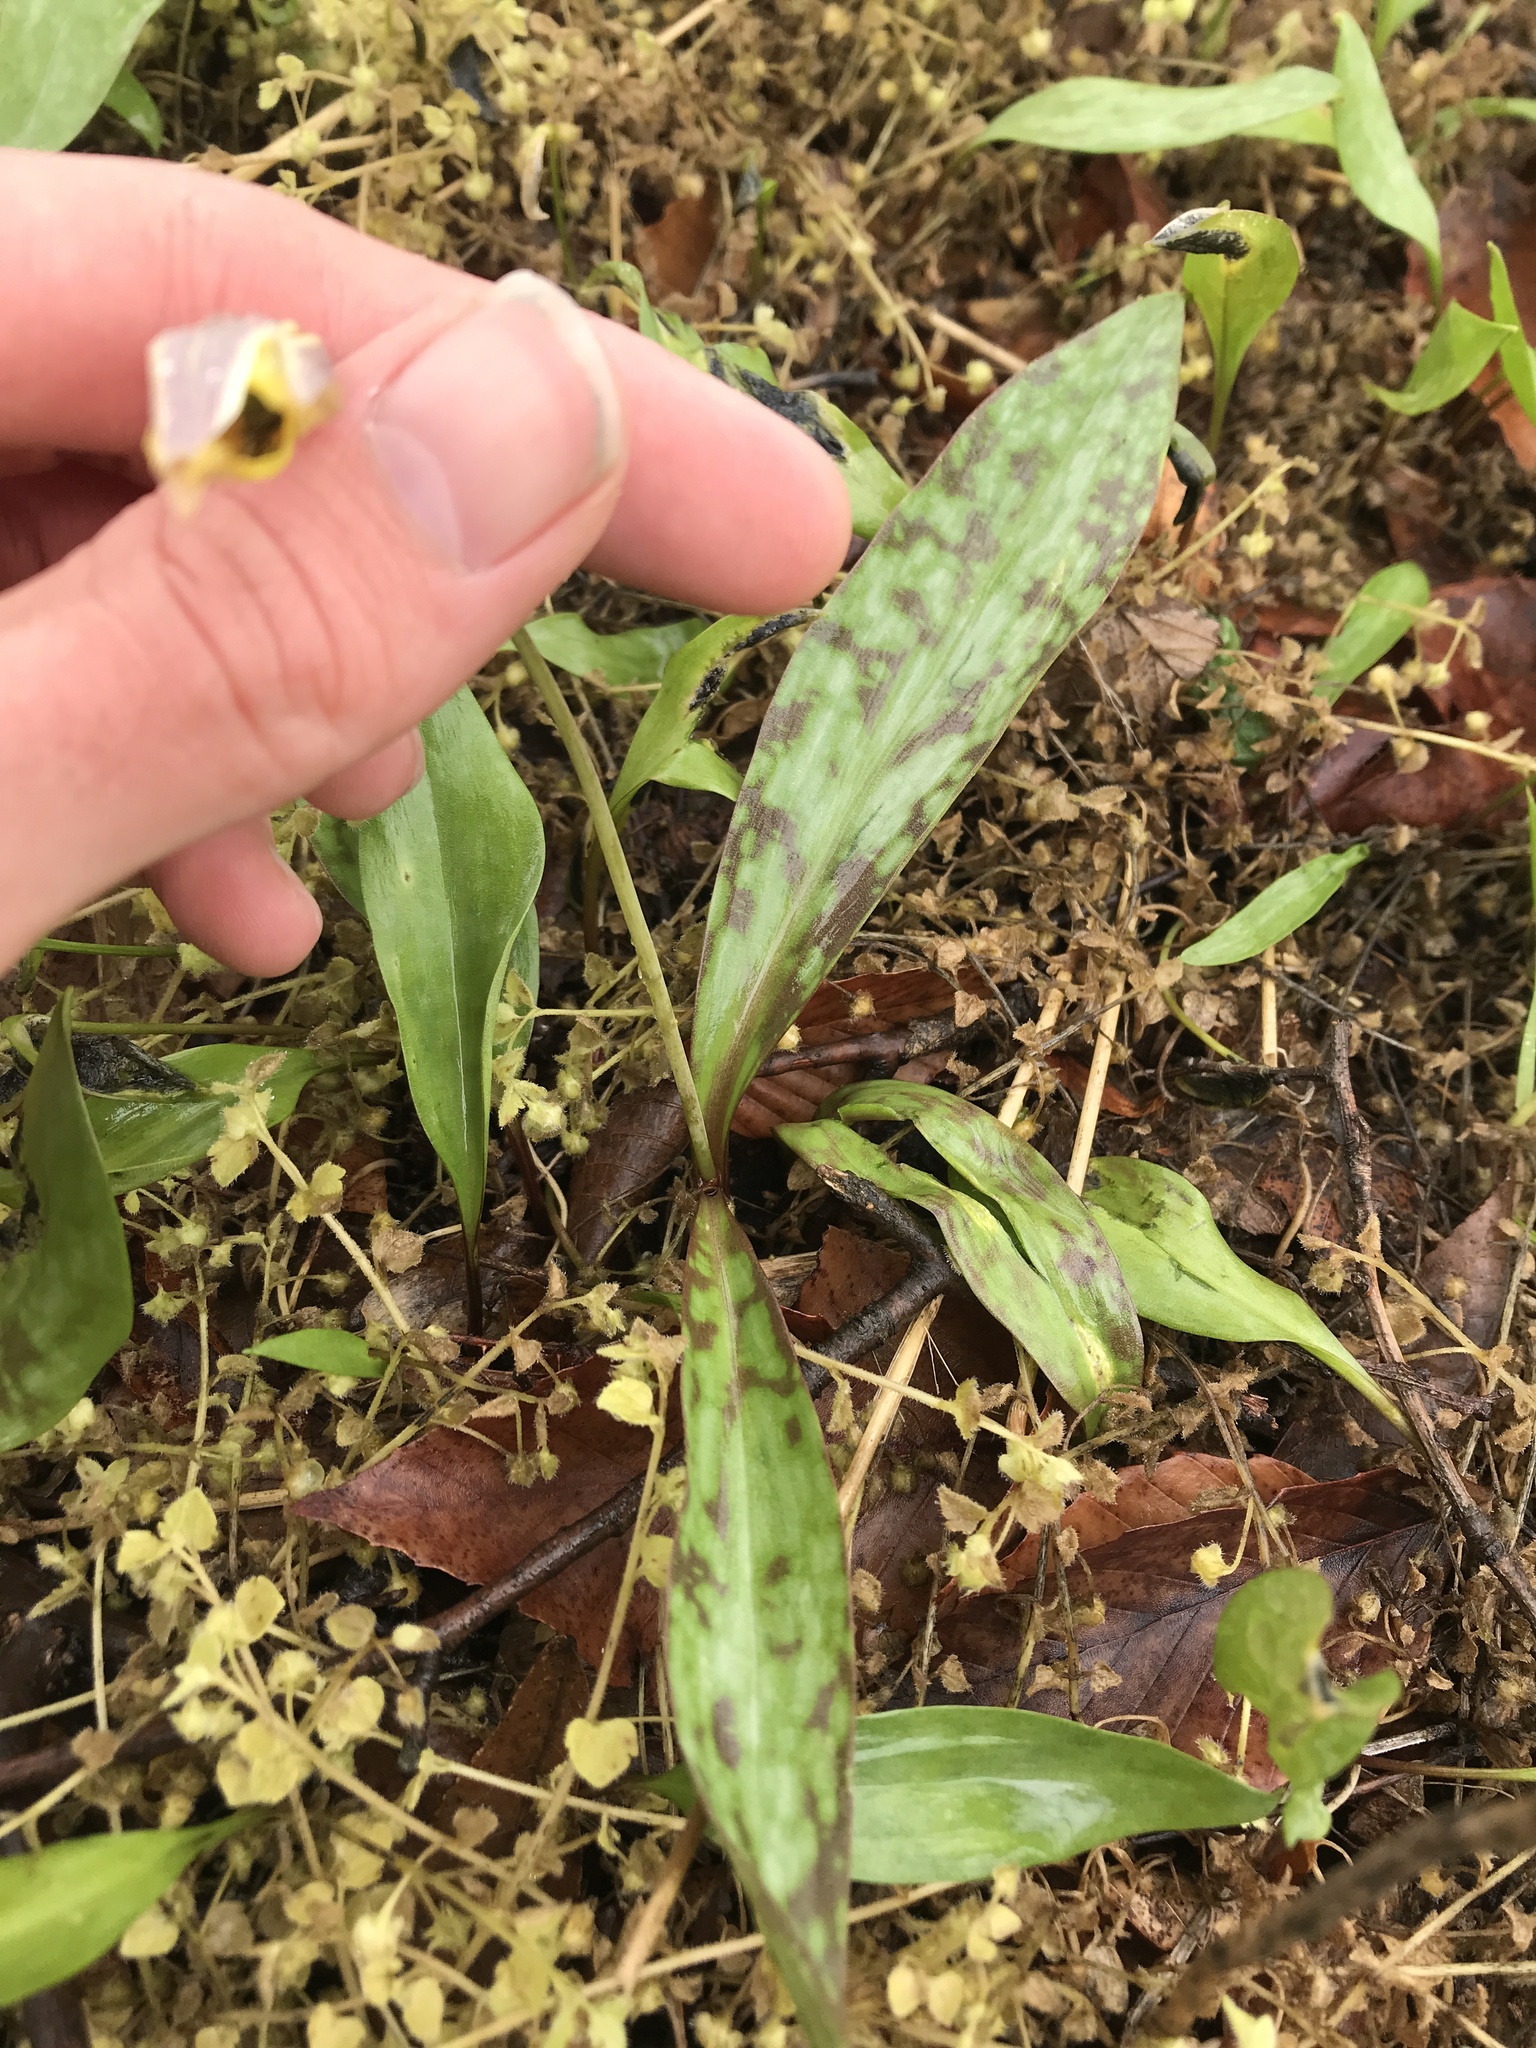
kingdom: Plantae
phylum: Tracheophyta
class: Liliopsida
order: Liliales
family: Liliaceae
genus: Erythronium
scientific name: Erythronium americanum
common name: Yellow adder's-tongue
